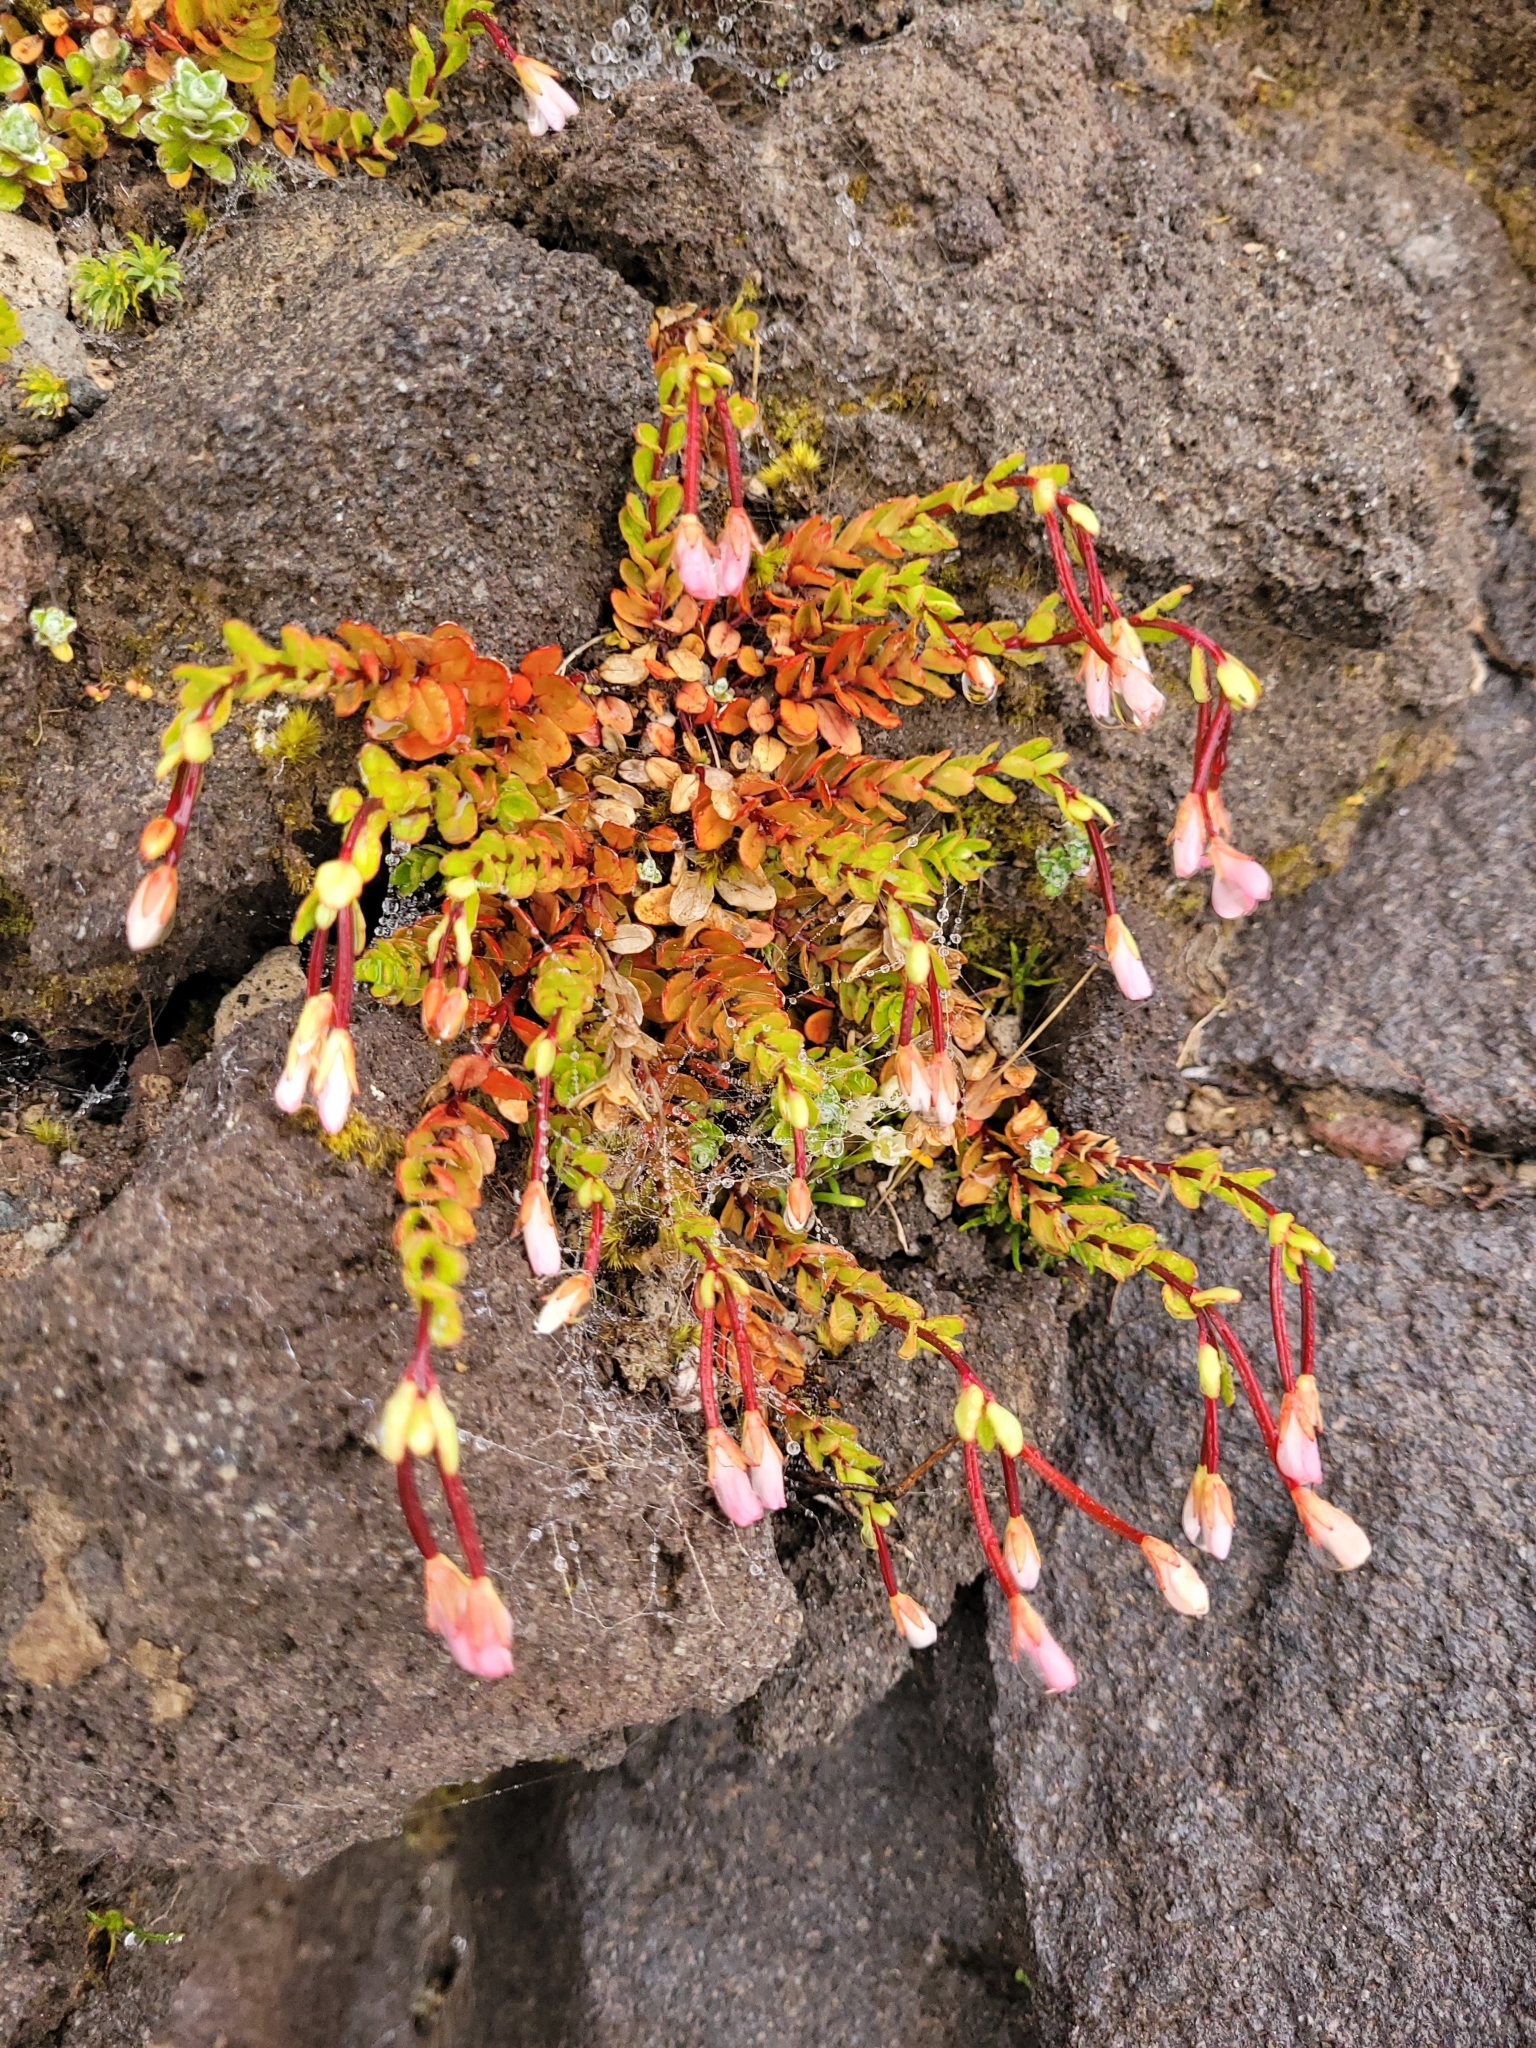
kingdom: Plantae
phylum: Tracheophyta
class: Magnoliopsida
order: Myrtales
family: Onagraceae
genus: Epilobium
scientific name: Epilobium glabellum
